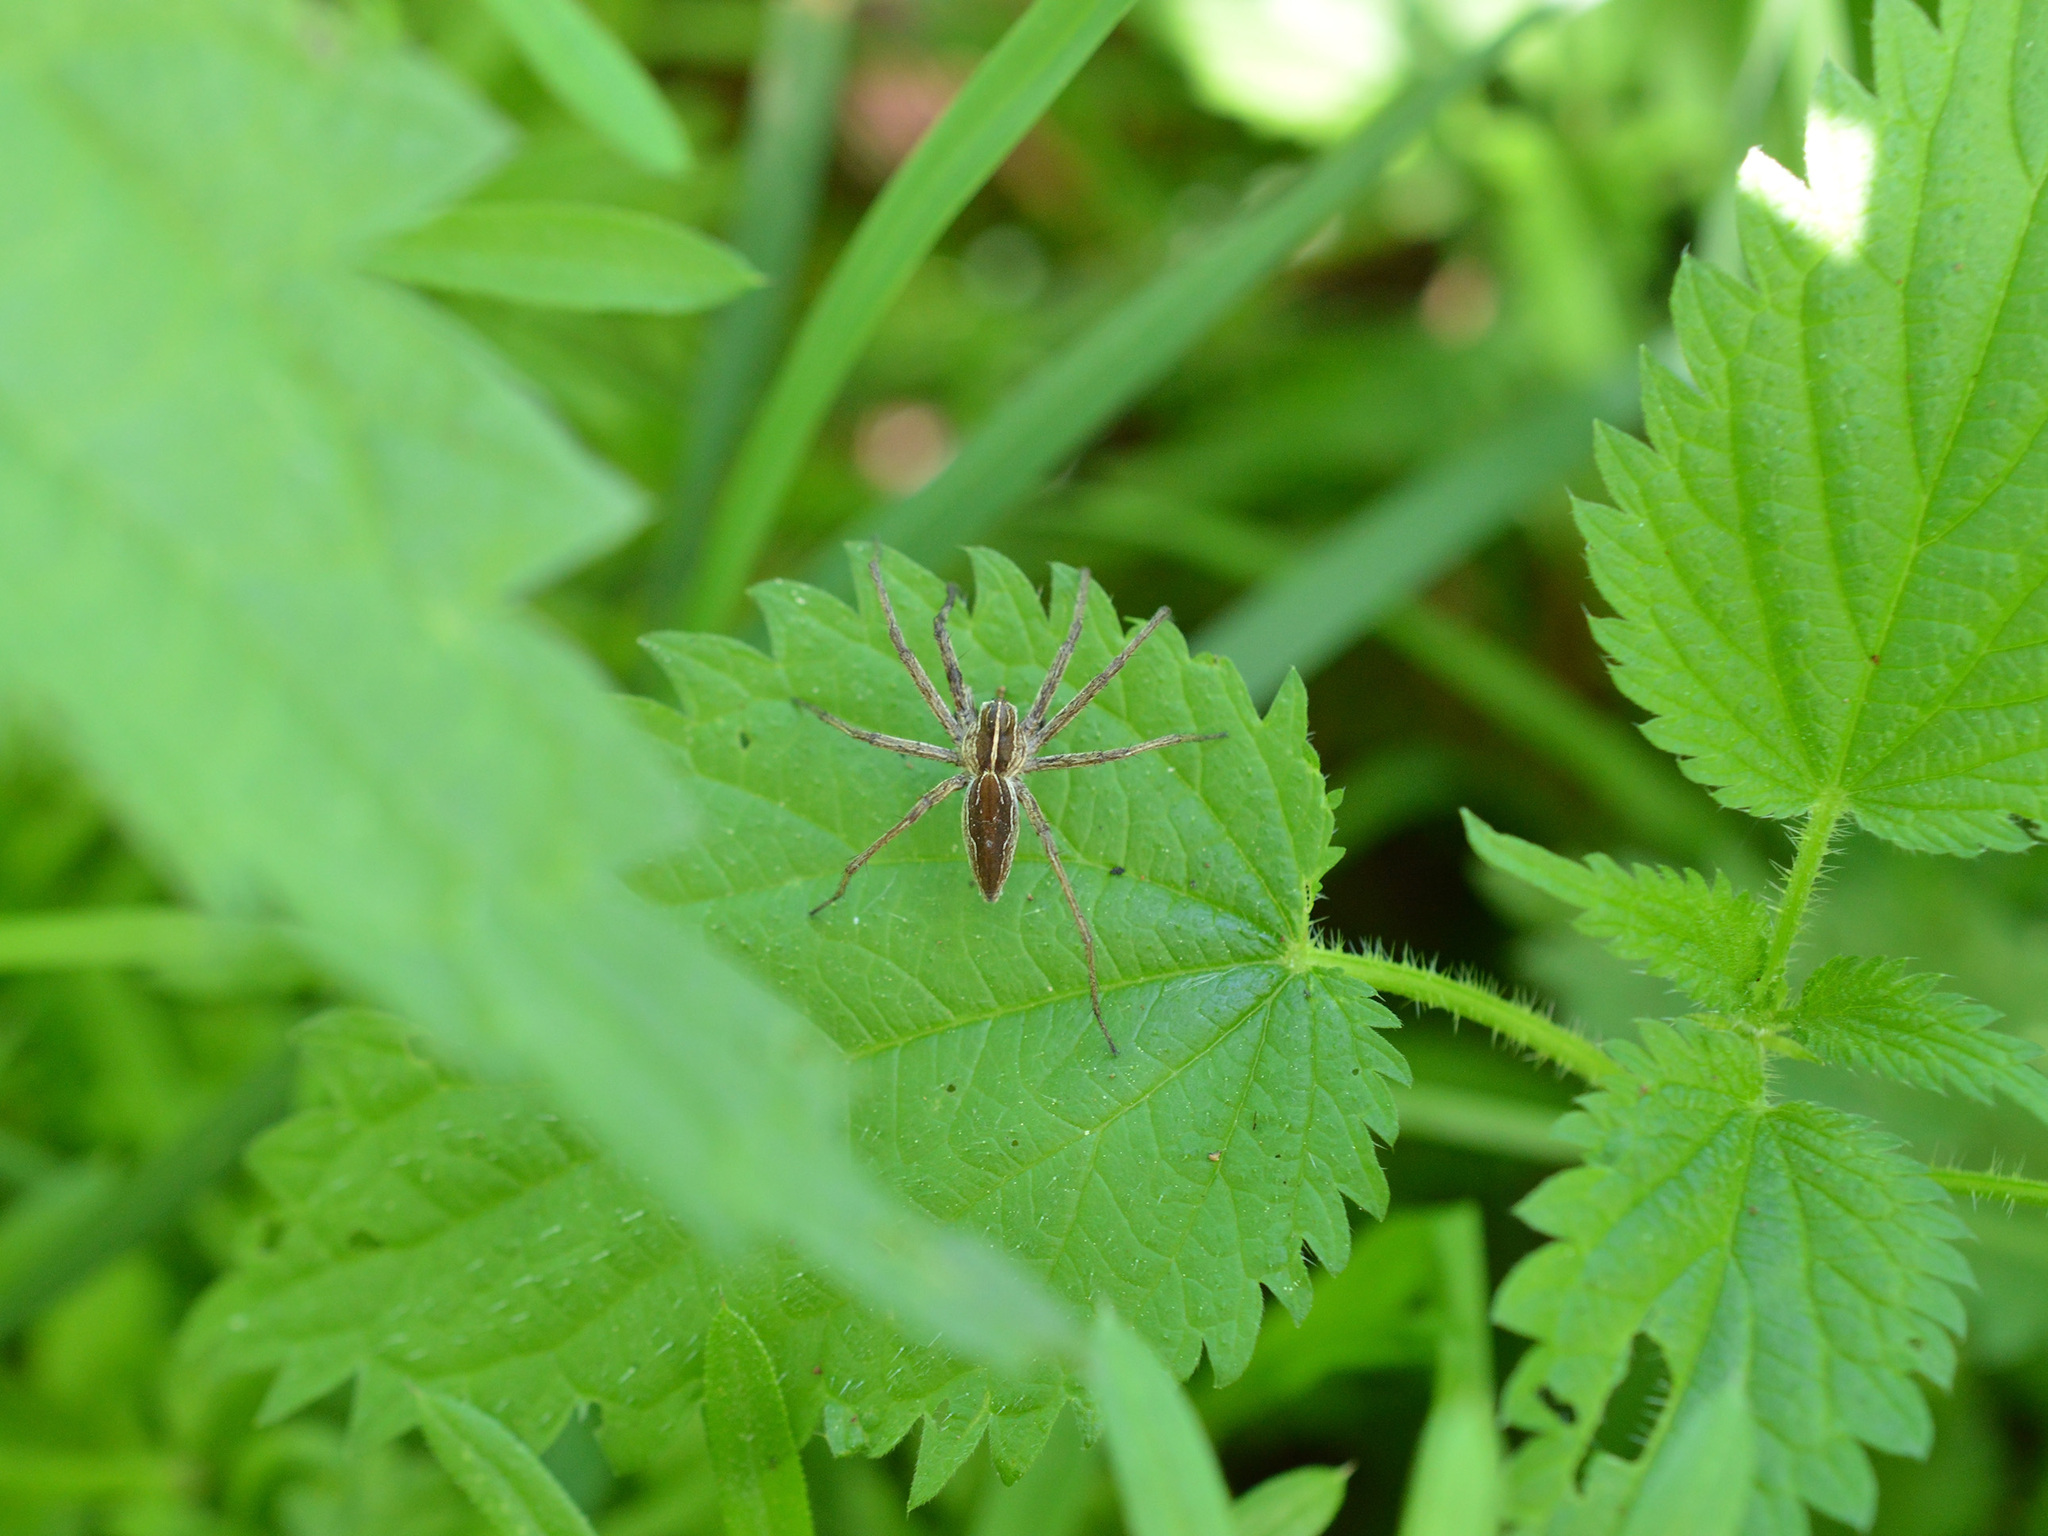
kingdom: Animalia
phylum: Arthropoda
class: Arachnida
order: Araneae
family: Pisauridae
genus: Pisaura
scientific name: Pisaura
